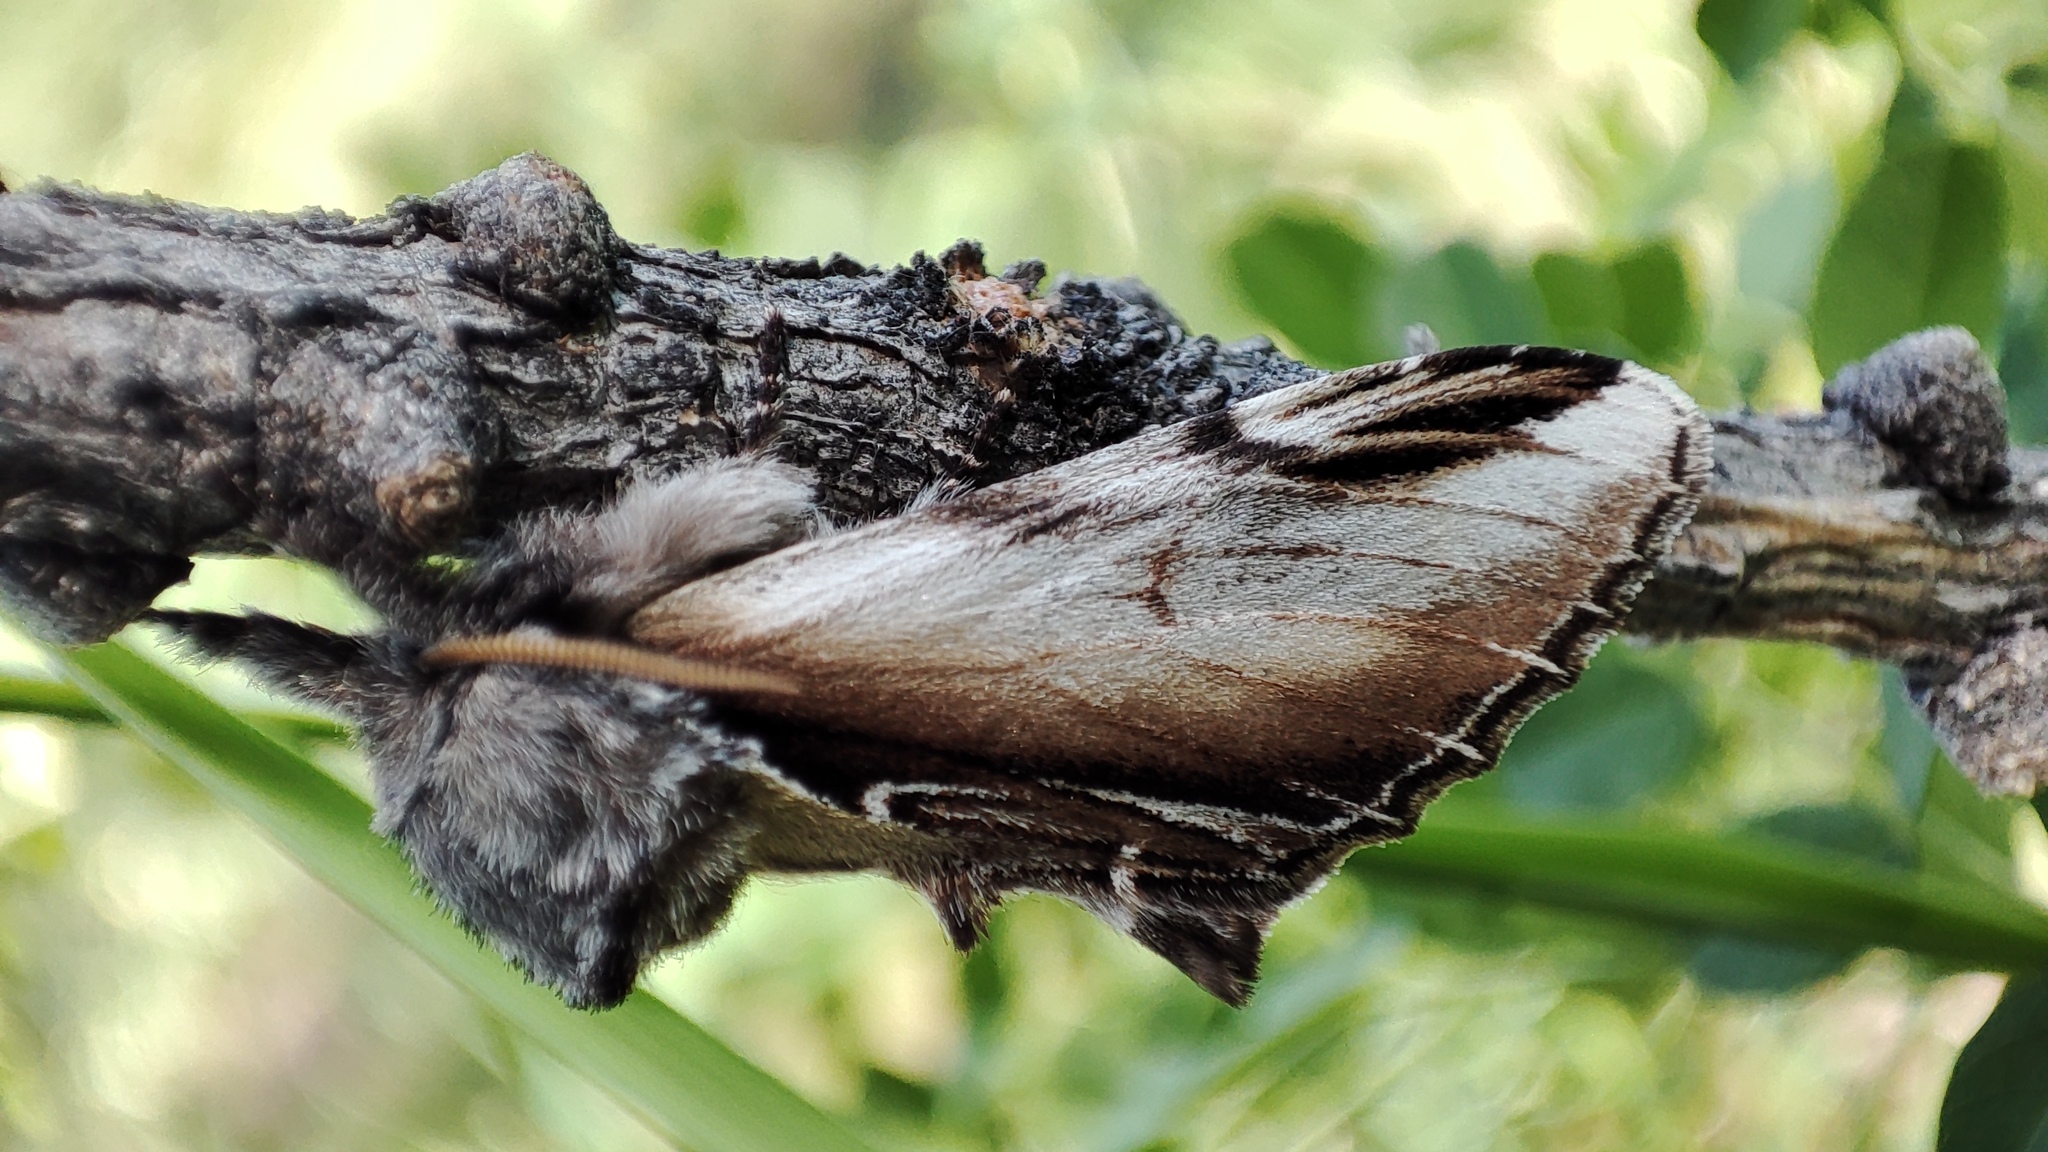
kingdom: Animalia
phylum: Arthropoda
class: Insecta
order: Lepidoptera
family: Notodontidae
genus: Pheosia
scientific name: Pheosia gnoma
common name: Lesser swallow prominent
